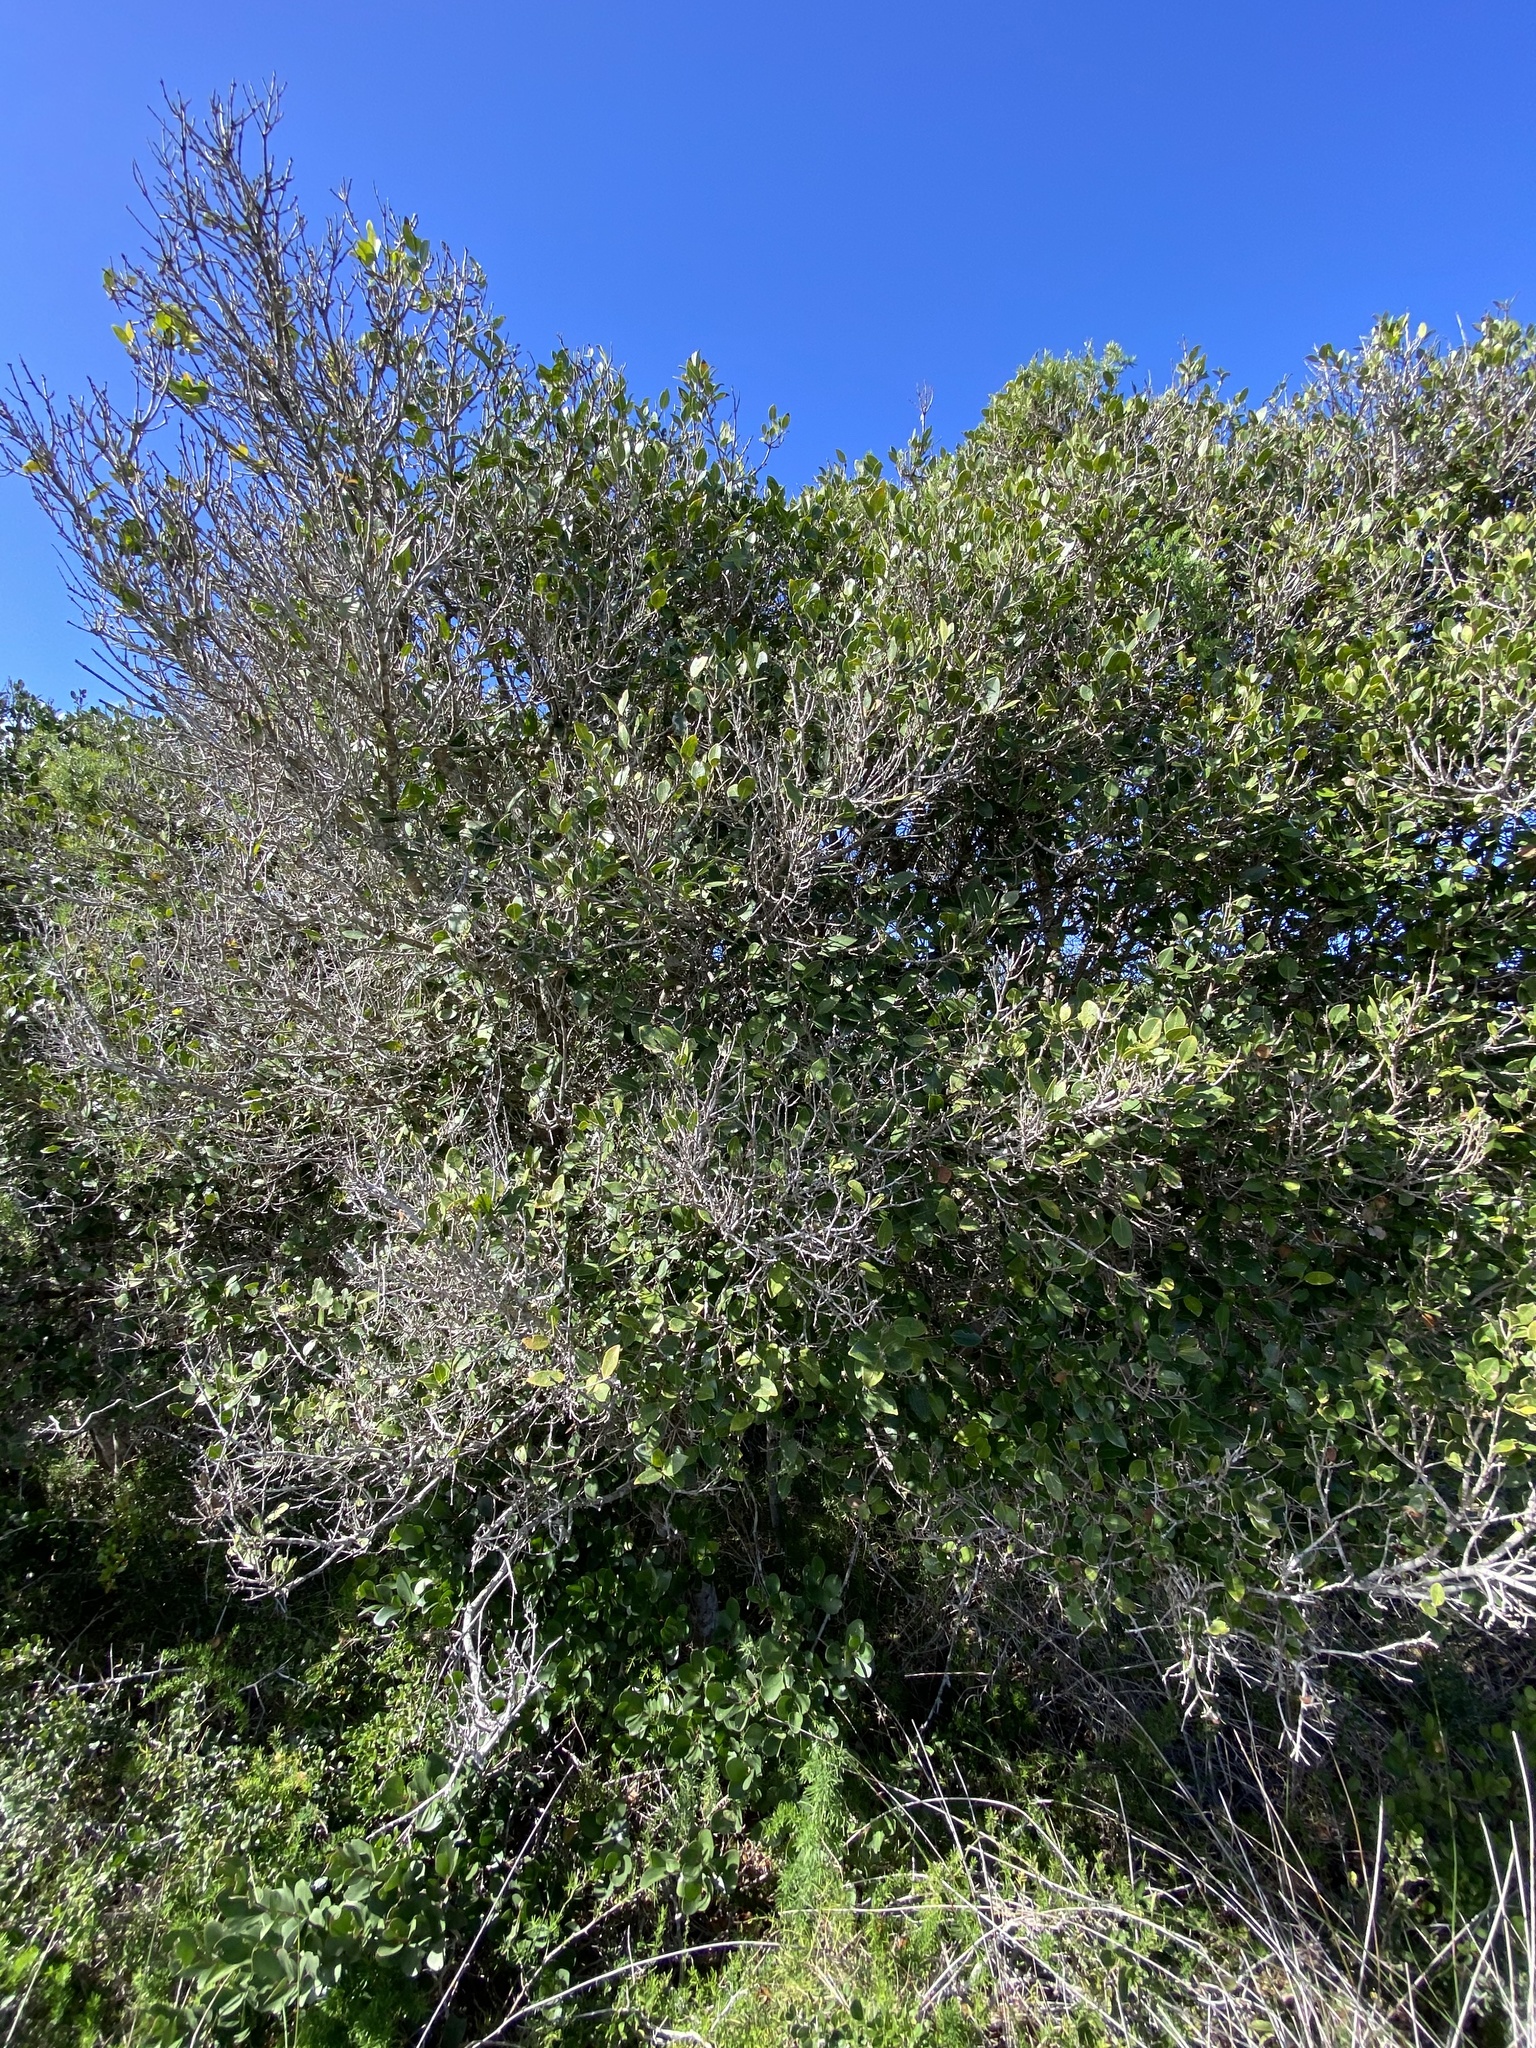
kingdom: Plantae
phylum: Tracheophyta
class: Magnoliopsida
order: Lamiales
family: Oleaceae
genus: Noronhia
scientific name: Noronhia foveolata
